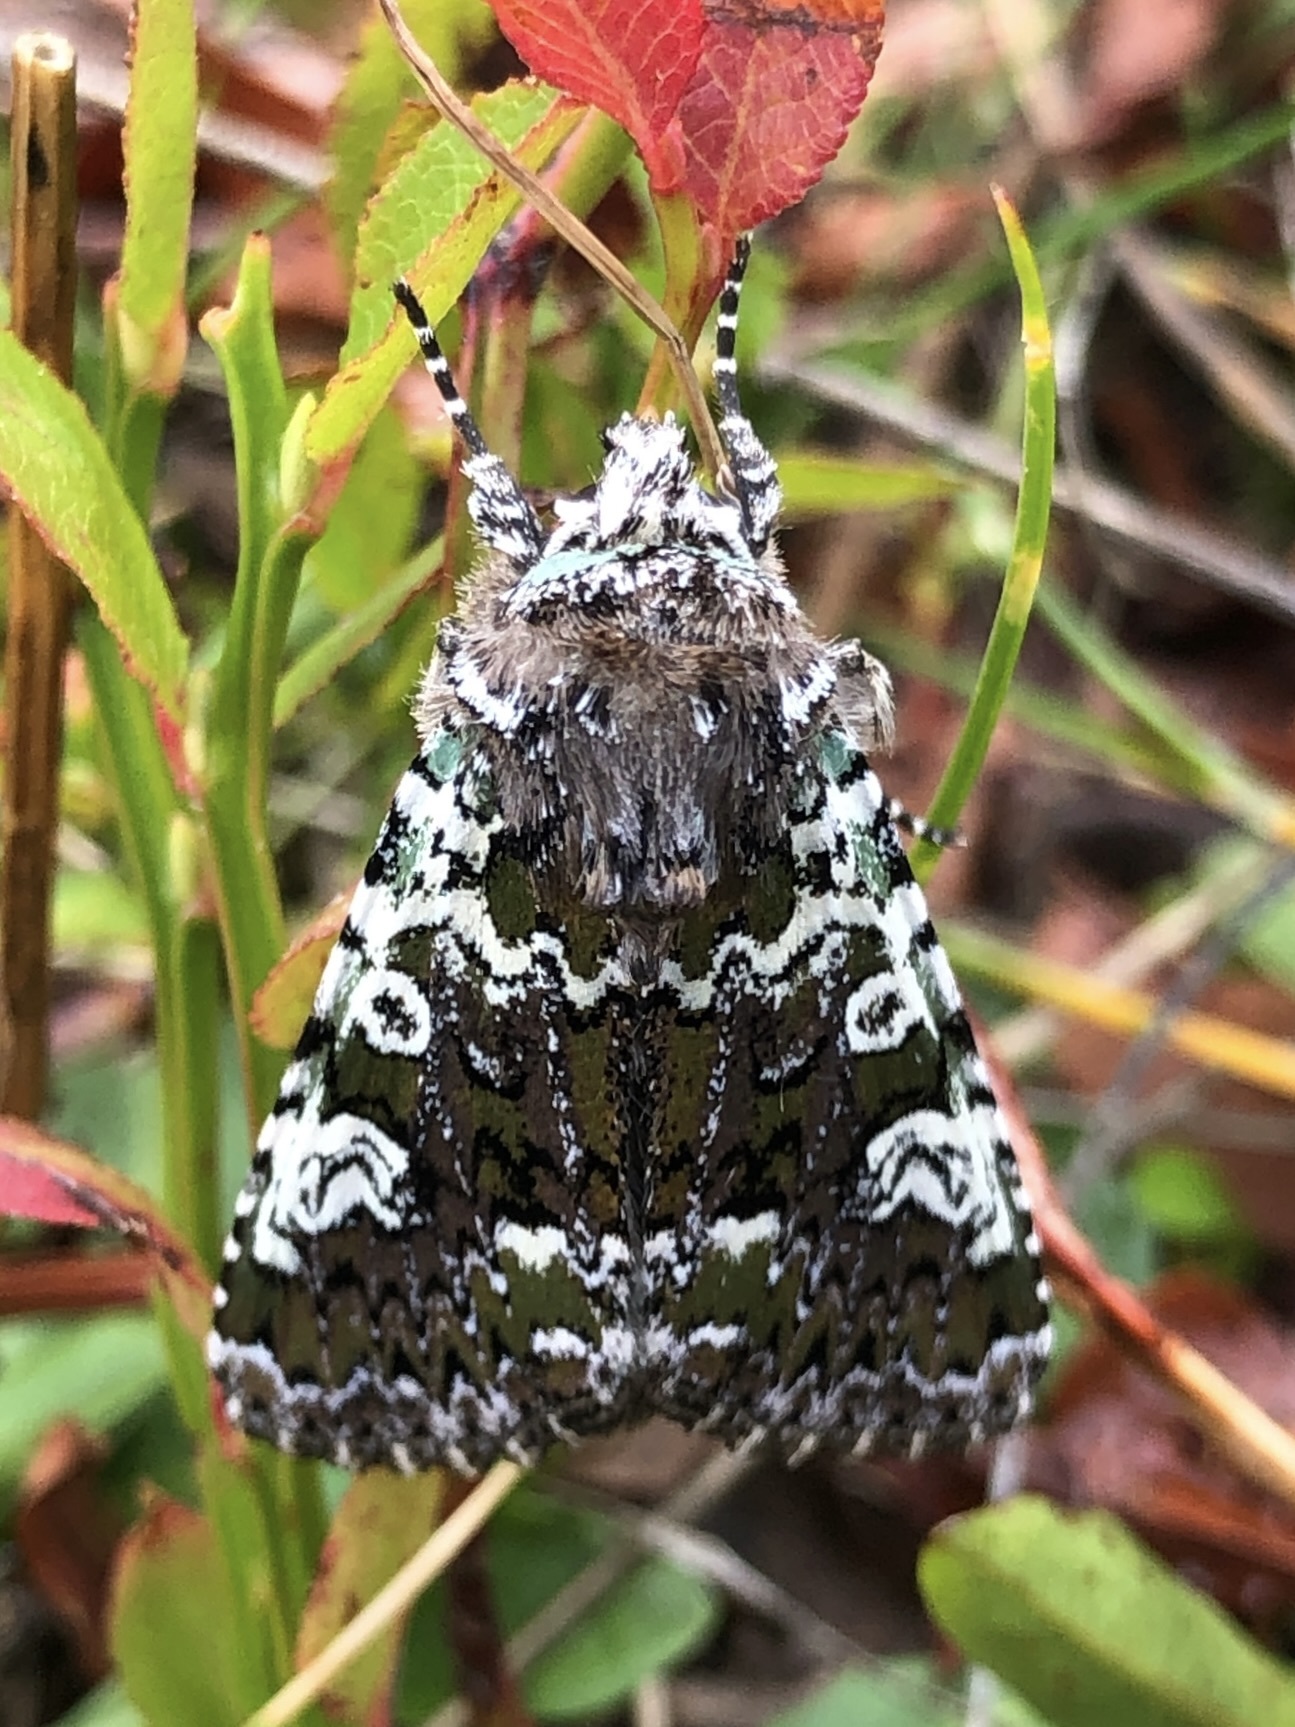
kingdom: Animalia
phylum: Arthropoda
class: Insecta
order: Lepidoptera
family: Noctuidae
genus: Crypsedra
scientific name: Crypsedra gemmea
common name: Cameo
